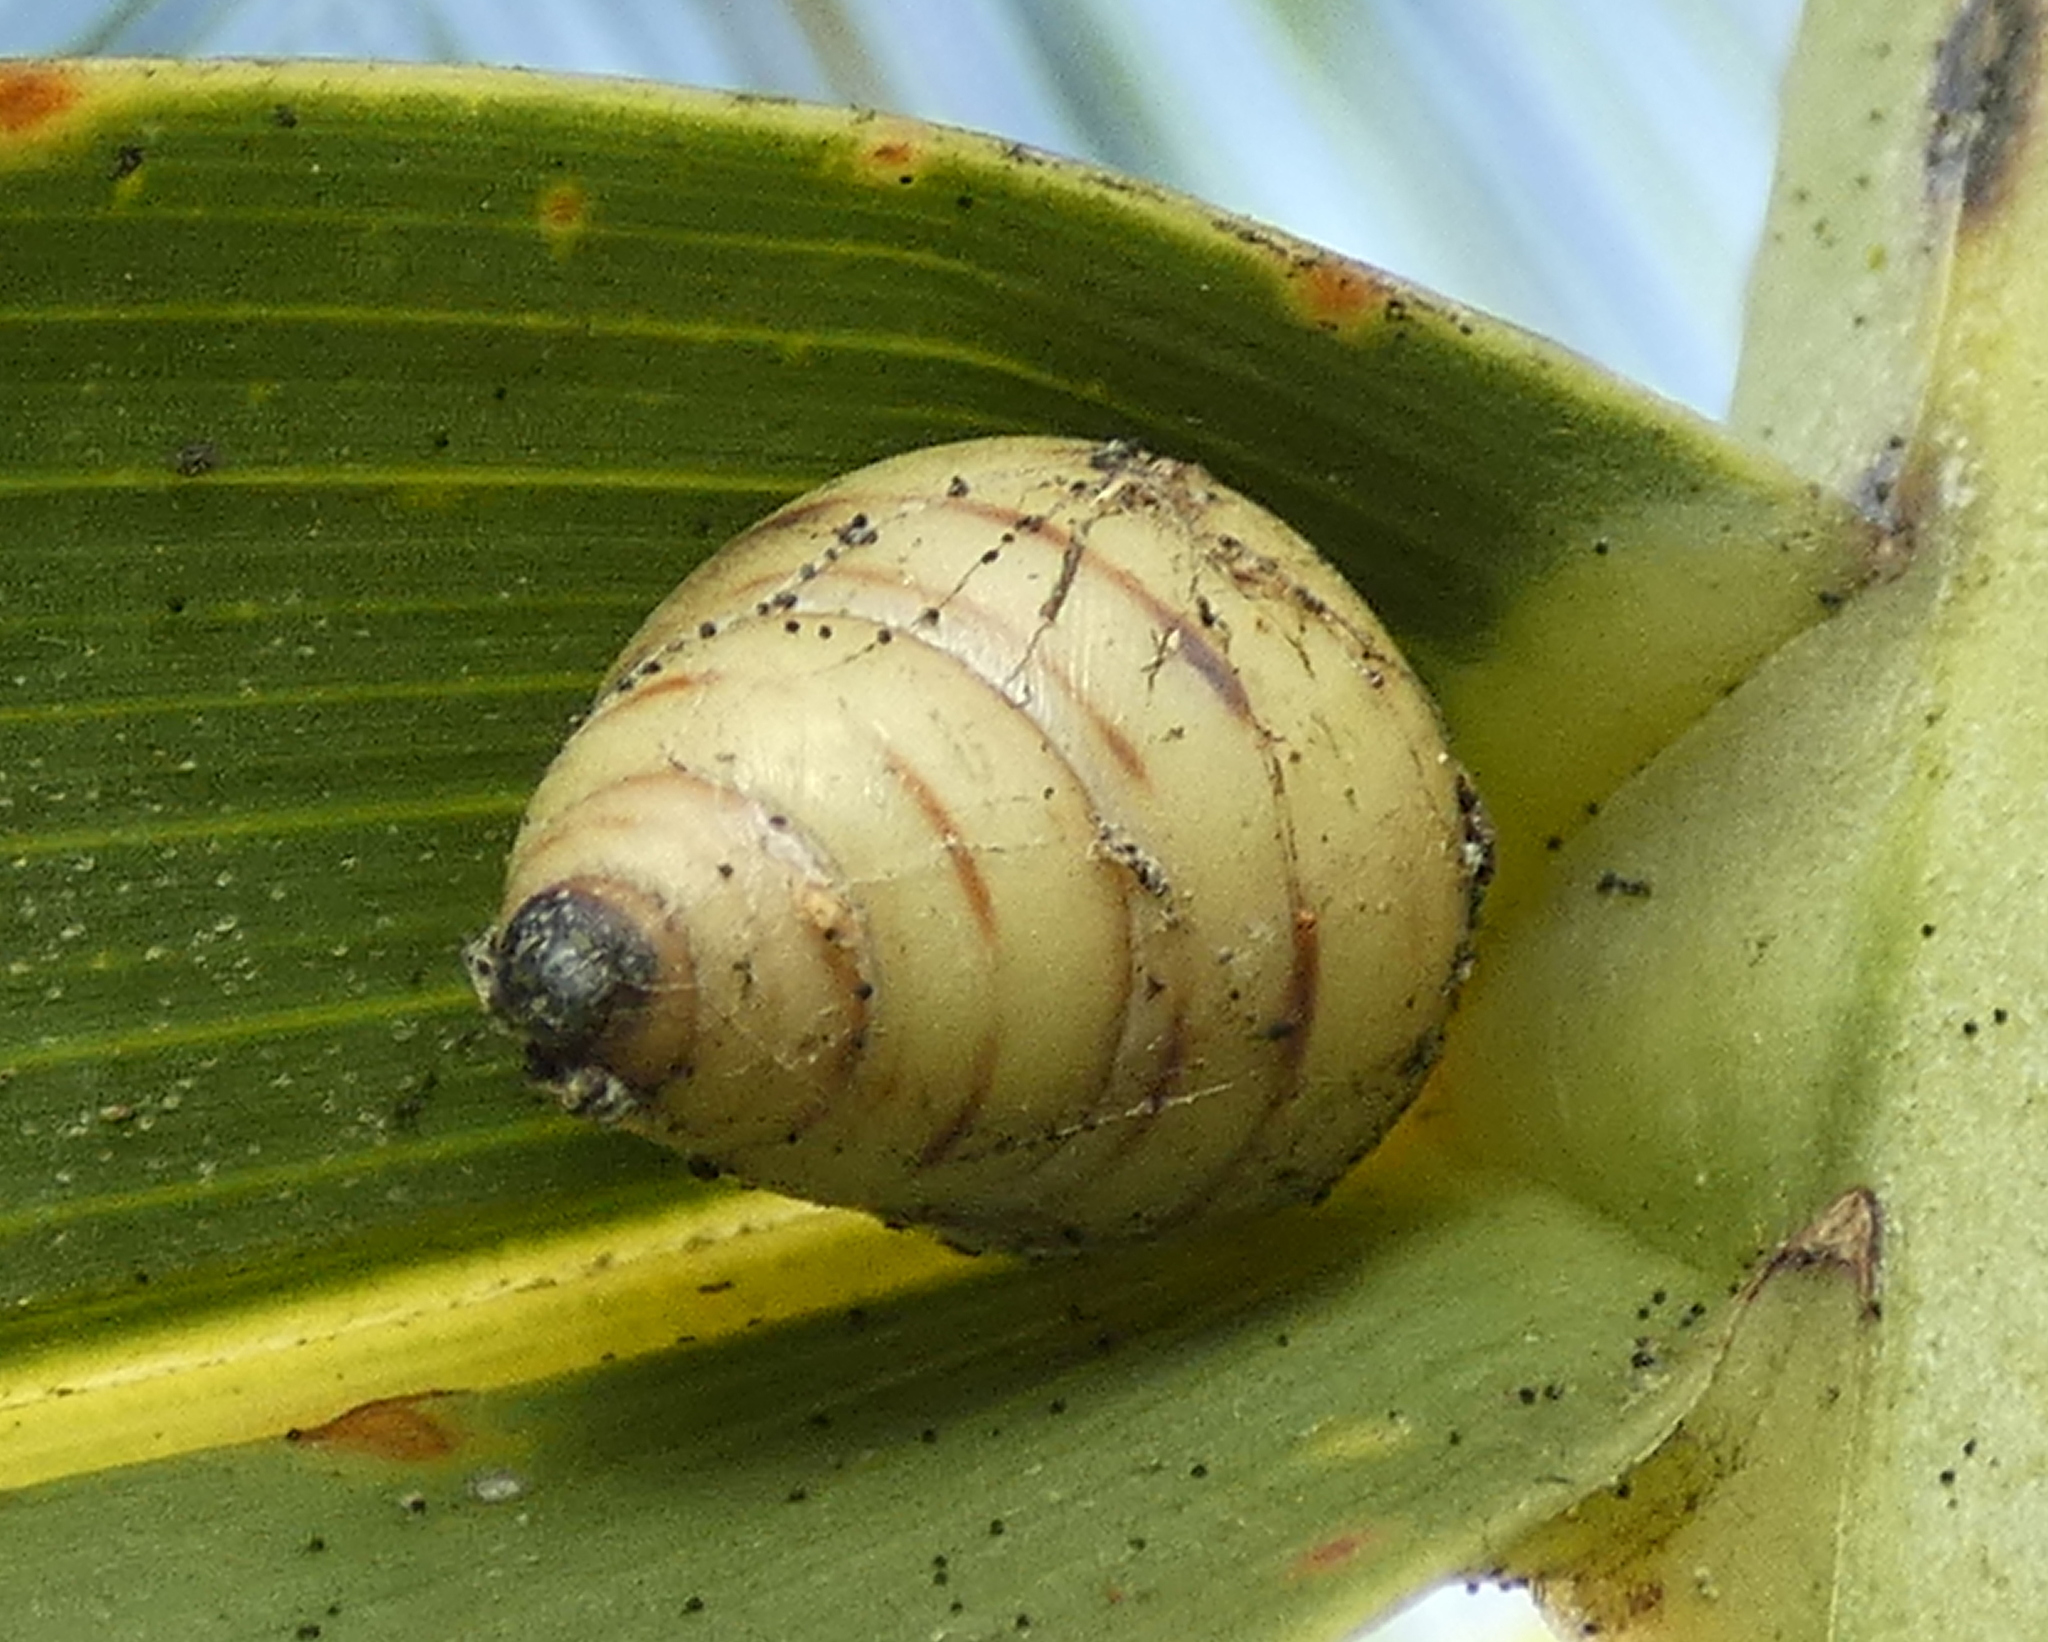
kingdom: Animalia
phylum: Mollusca
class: Gastropoda
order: Stylommatophora
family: Bulimulidae
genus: Drymaeus
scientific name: Drymaeus
